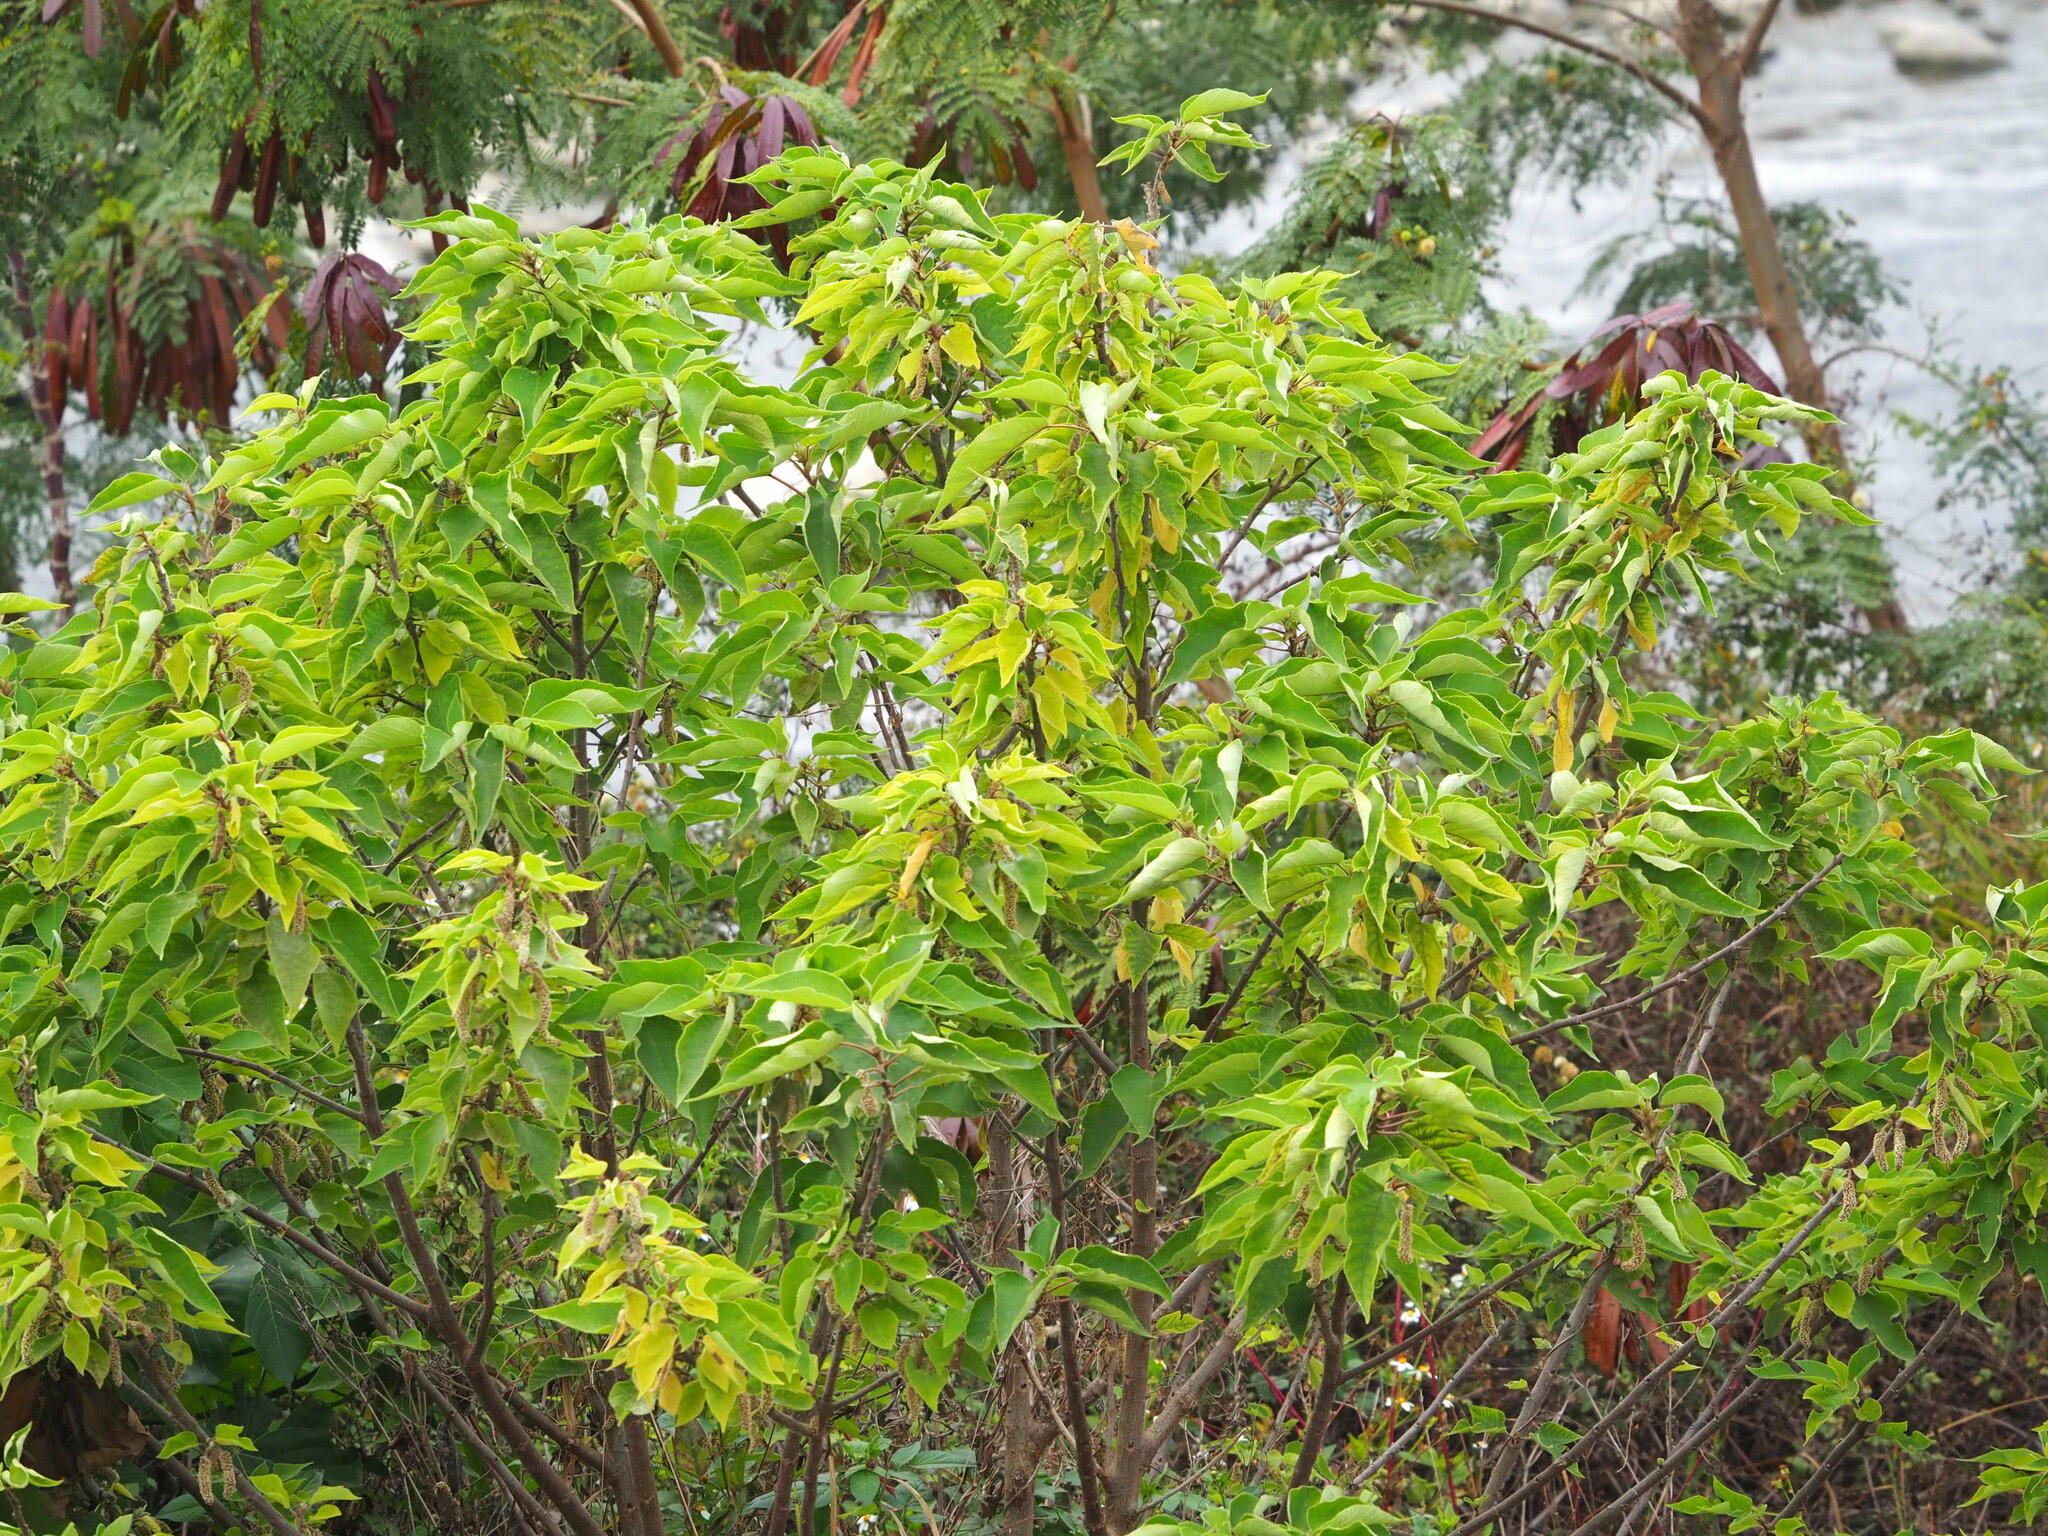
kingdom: Plantae
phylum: Tracheophyta
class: Magnoliopsida
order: Rosales
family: Moraceae
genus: Broussonetia
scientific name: Broussonetia papyrifera
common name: Paper mulberry
